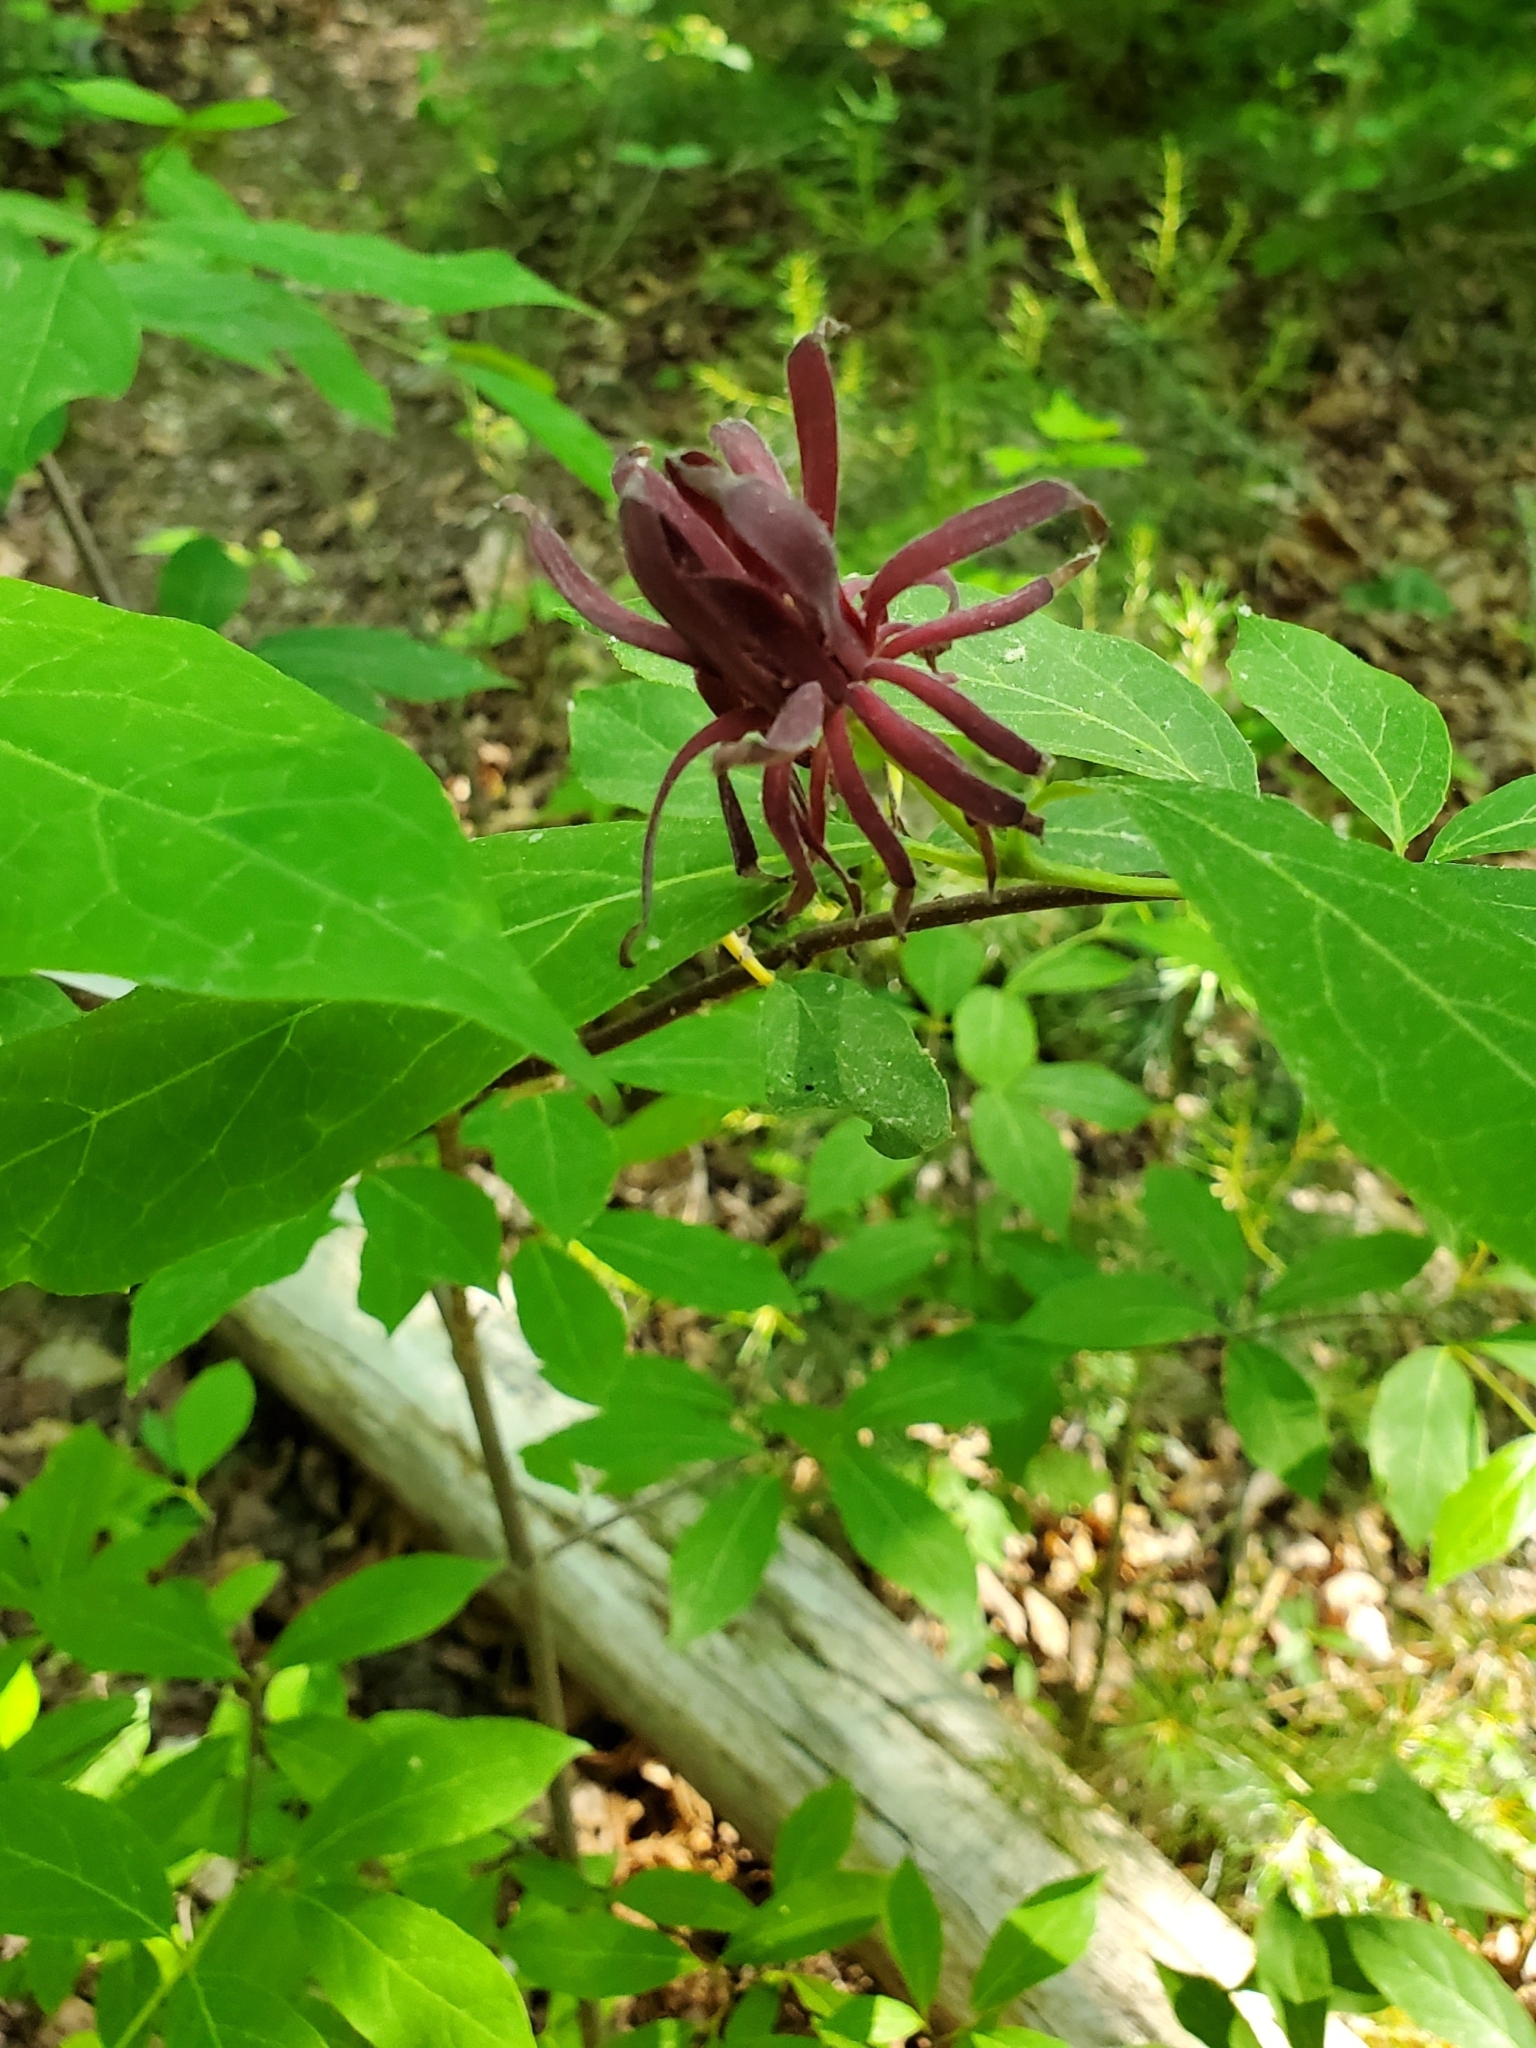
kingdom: Plantae
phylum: Tracheophyta
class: Magnoliopsida
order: Laurales
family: Calycanthaceae
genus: Calycanthus
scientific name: Calycanthus floridus
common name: Carolina-allspice
